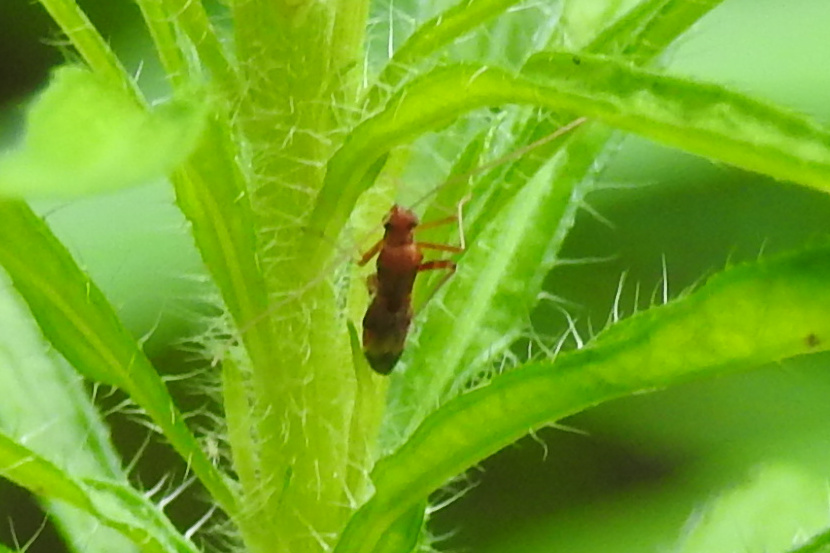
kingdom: Animalia
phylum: Arthropoda
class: Insecta
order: Hemiptera
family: Miridae
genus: Paraxenetus
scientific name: Paraxenetus guttulatus
